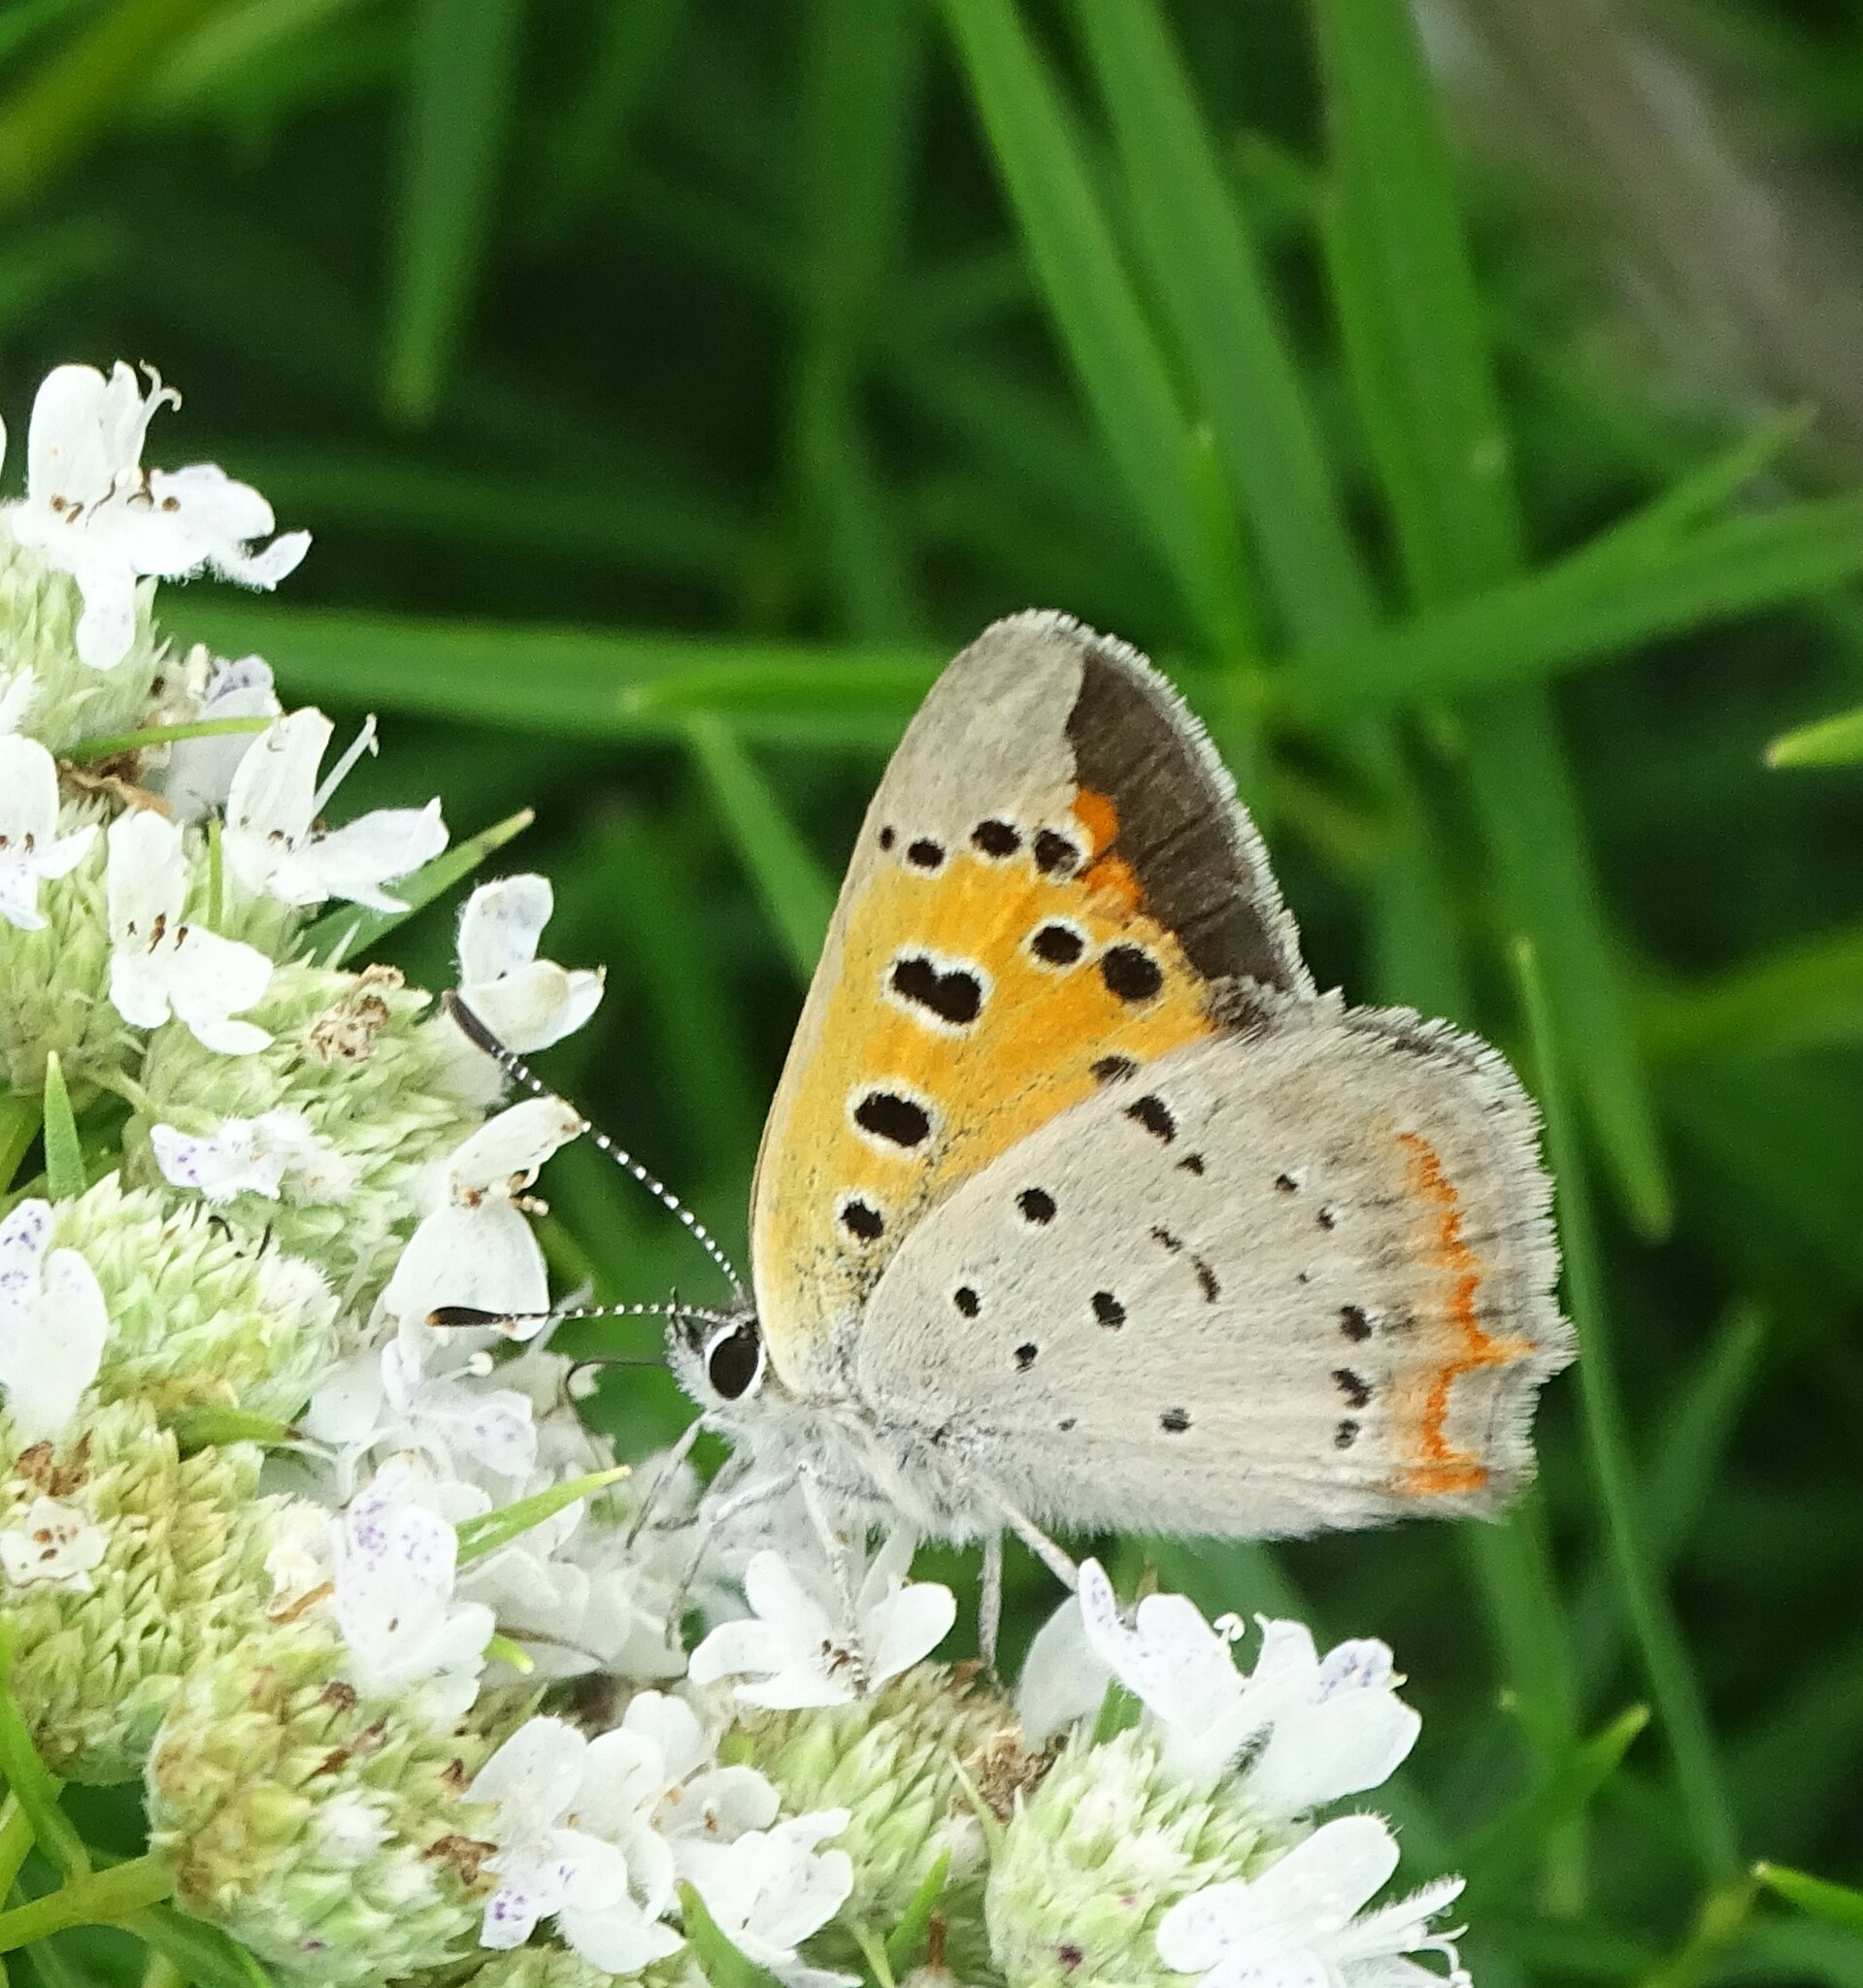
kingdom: Animalia
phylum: Arthropoda
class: Insecta
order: Lepidoptera
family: Lycaenidae
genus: Lycaena
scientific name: Lycaena hypophlaeas
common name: American copper
